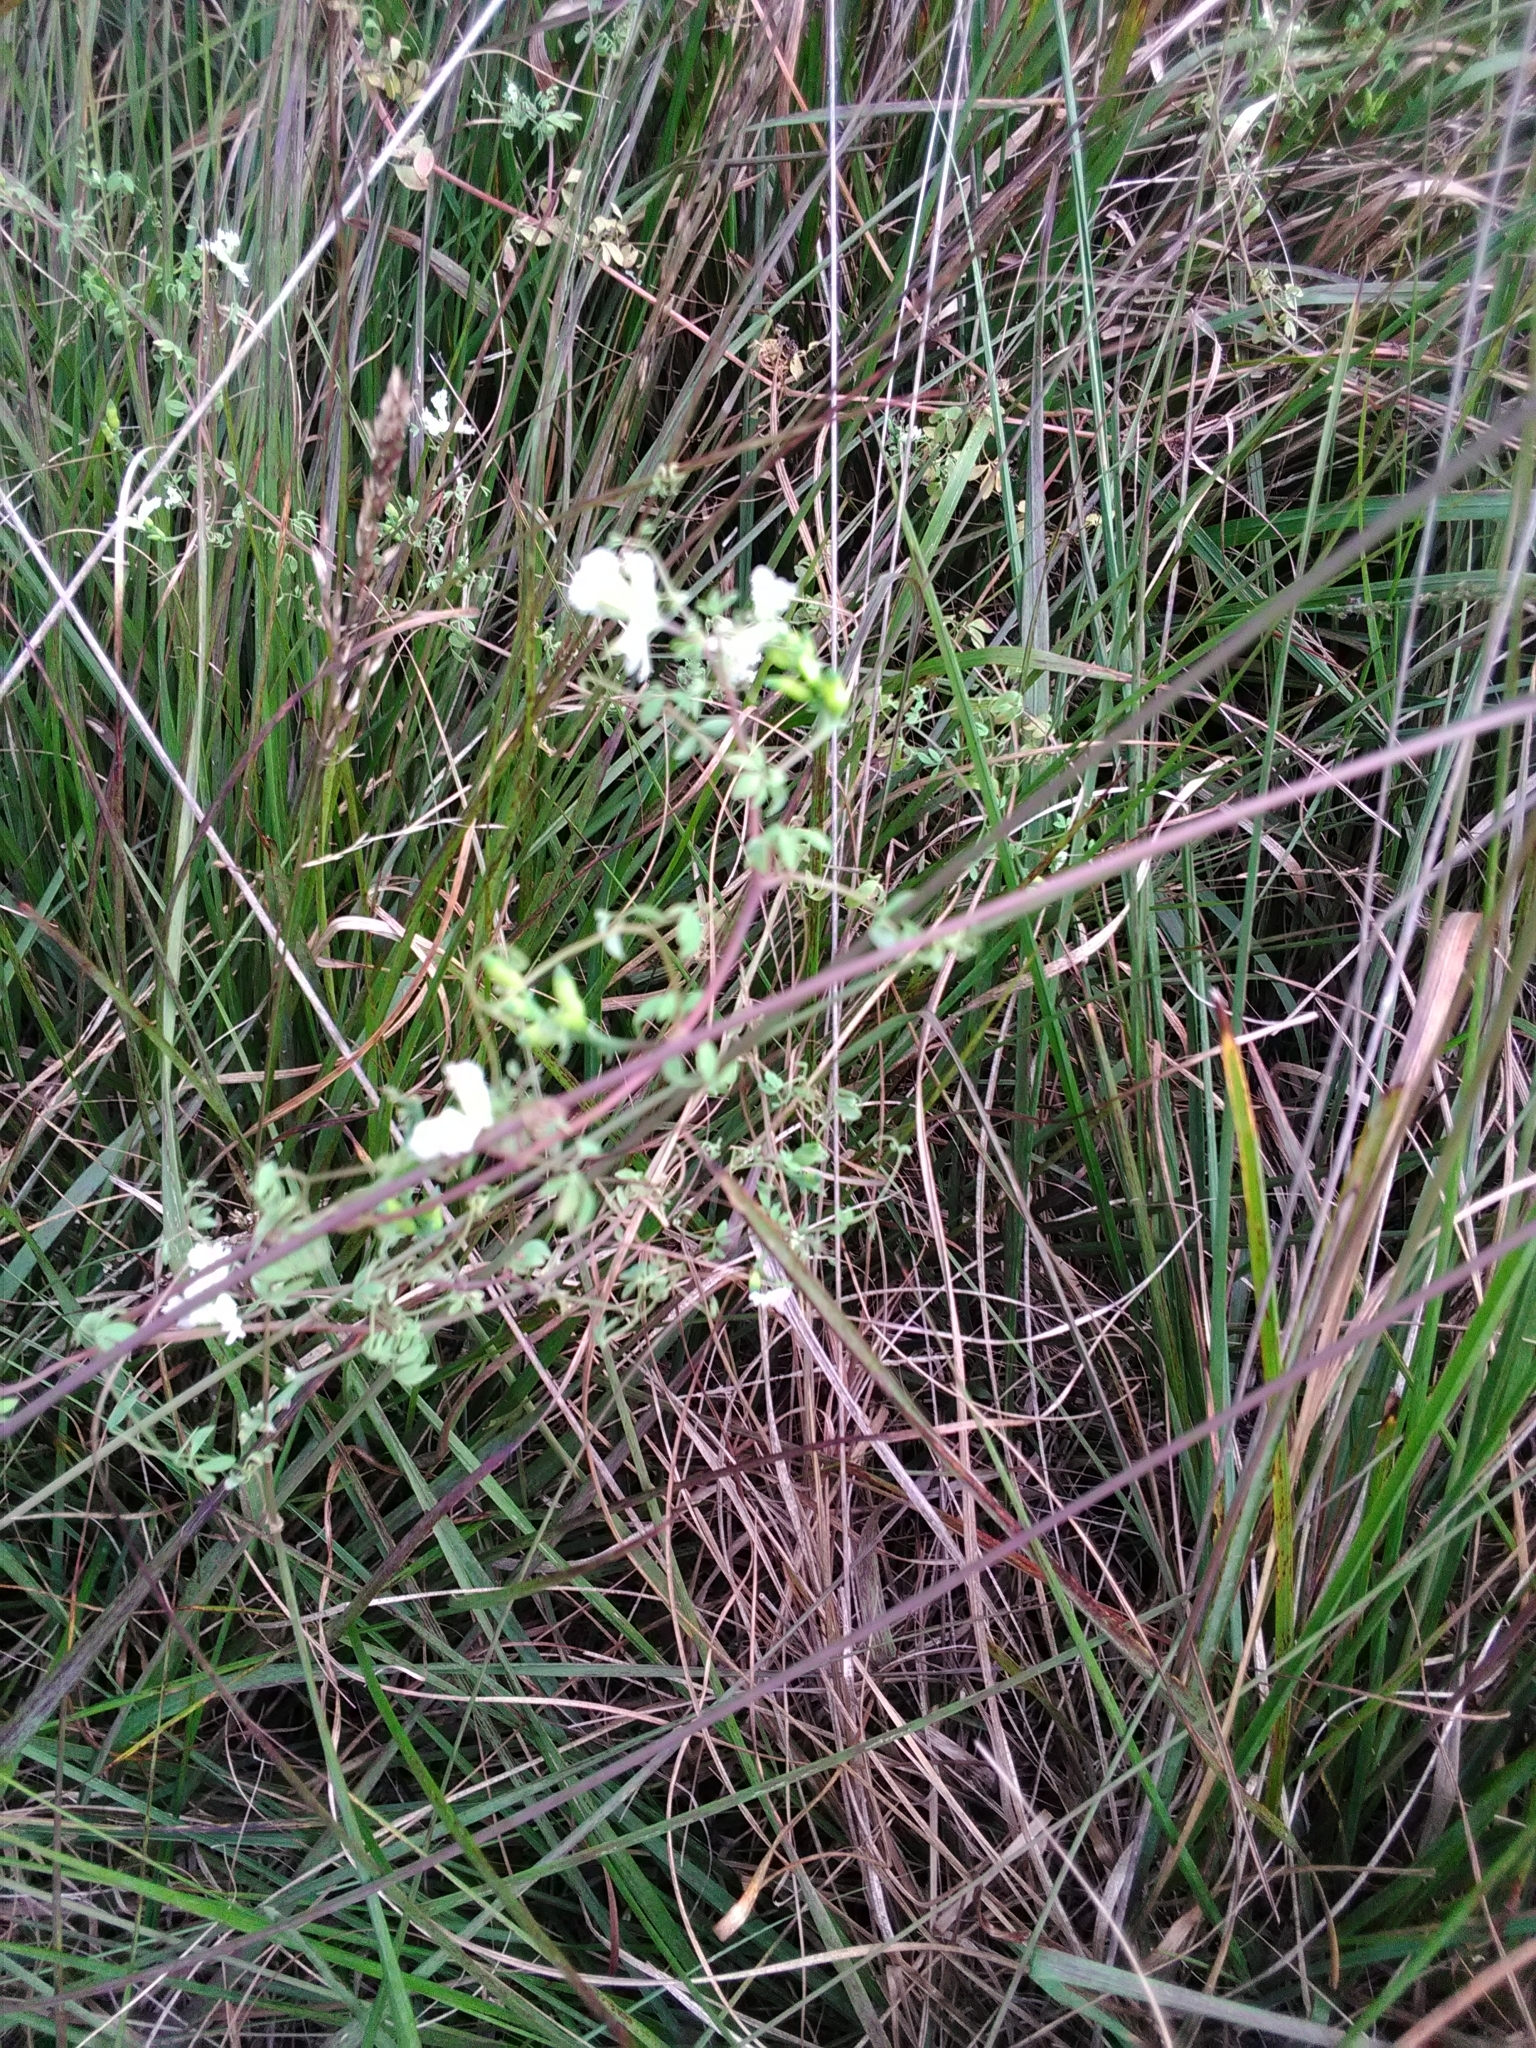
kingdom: Plantae
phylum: Tracheophyta
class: Magnoliopsida
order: Ranunculales
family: Papaveraceae
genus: Ceratocapnos
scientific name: Ceratocapnos claviculata
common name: Climbing corydalis
